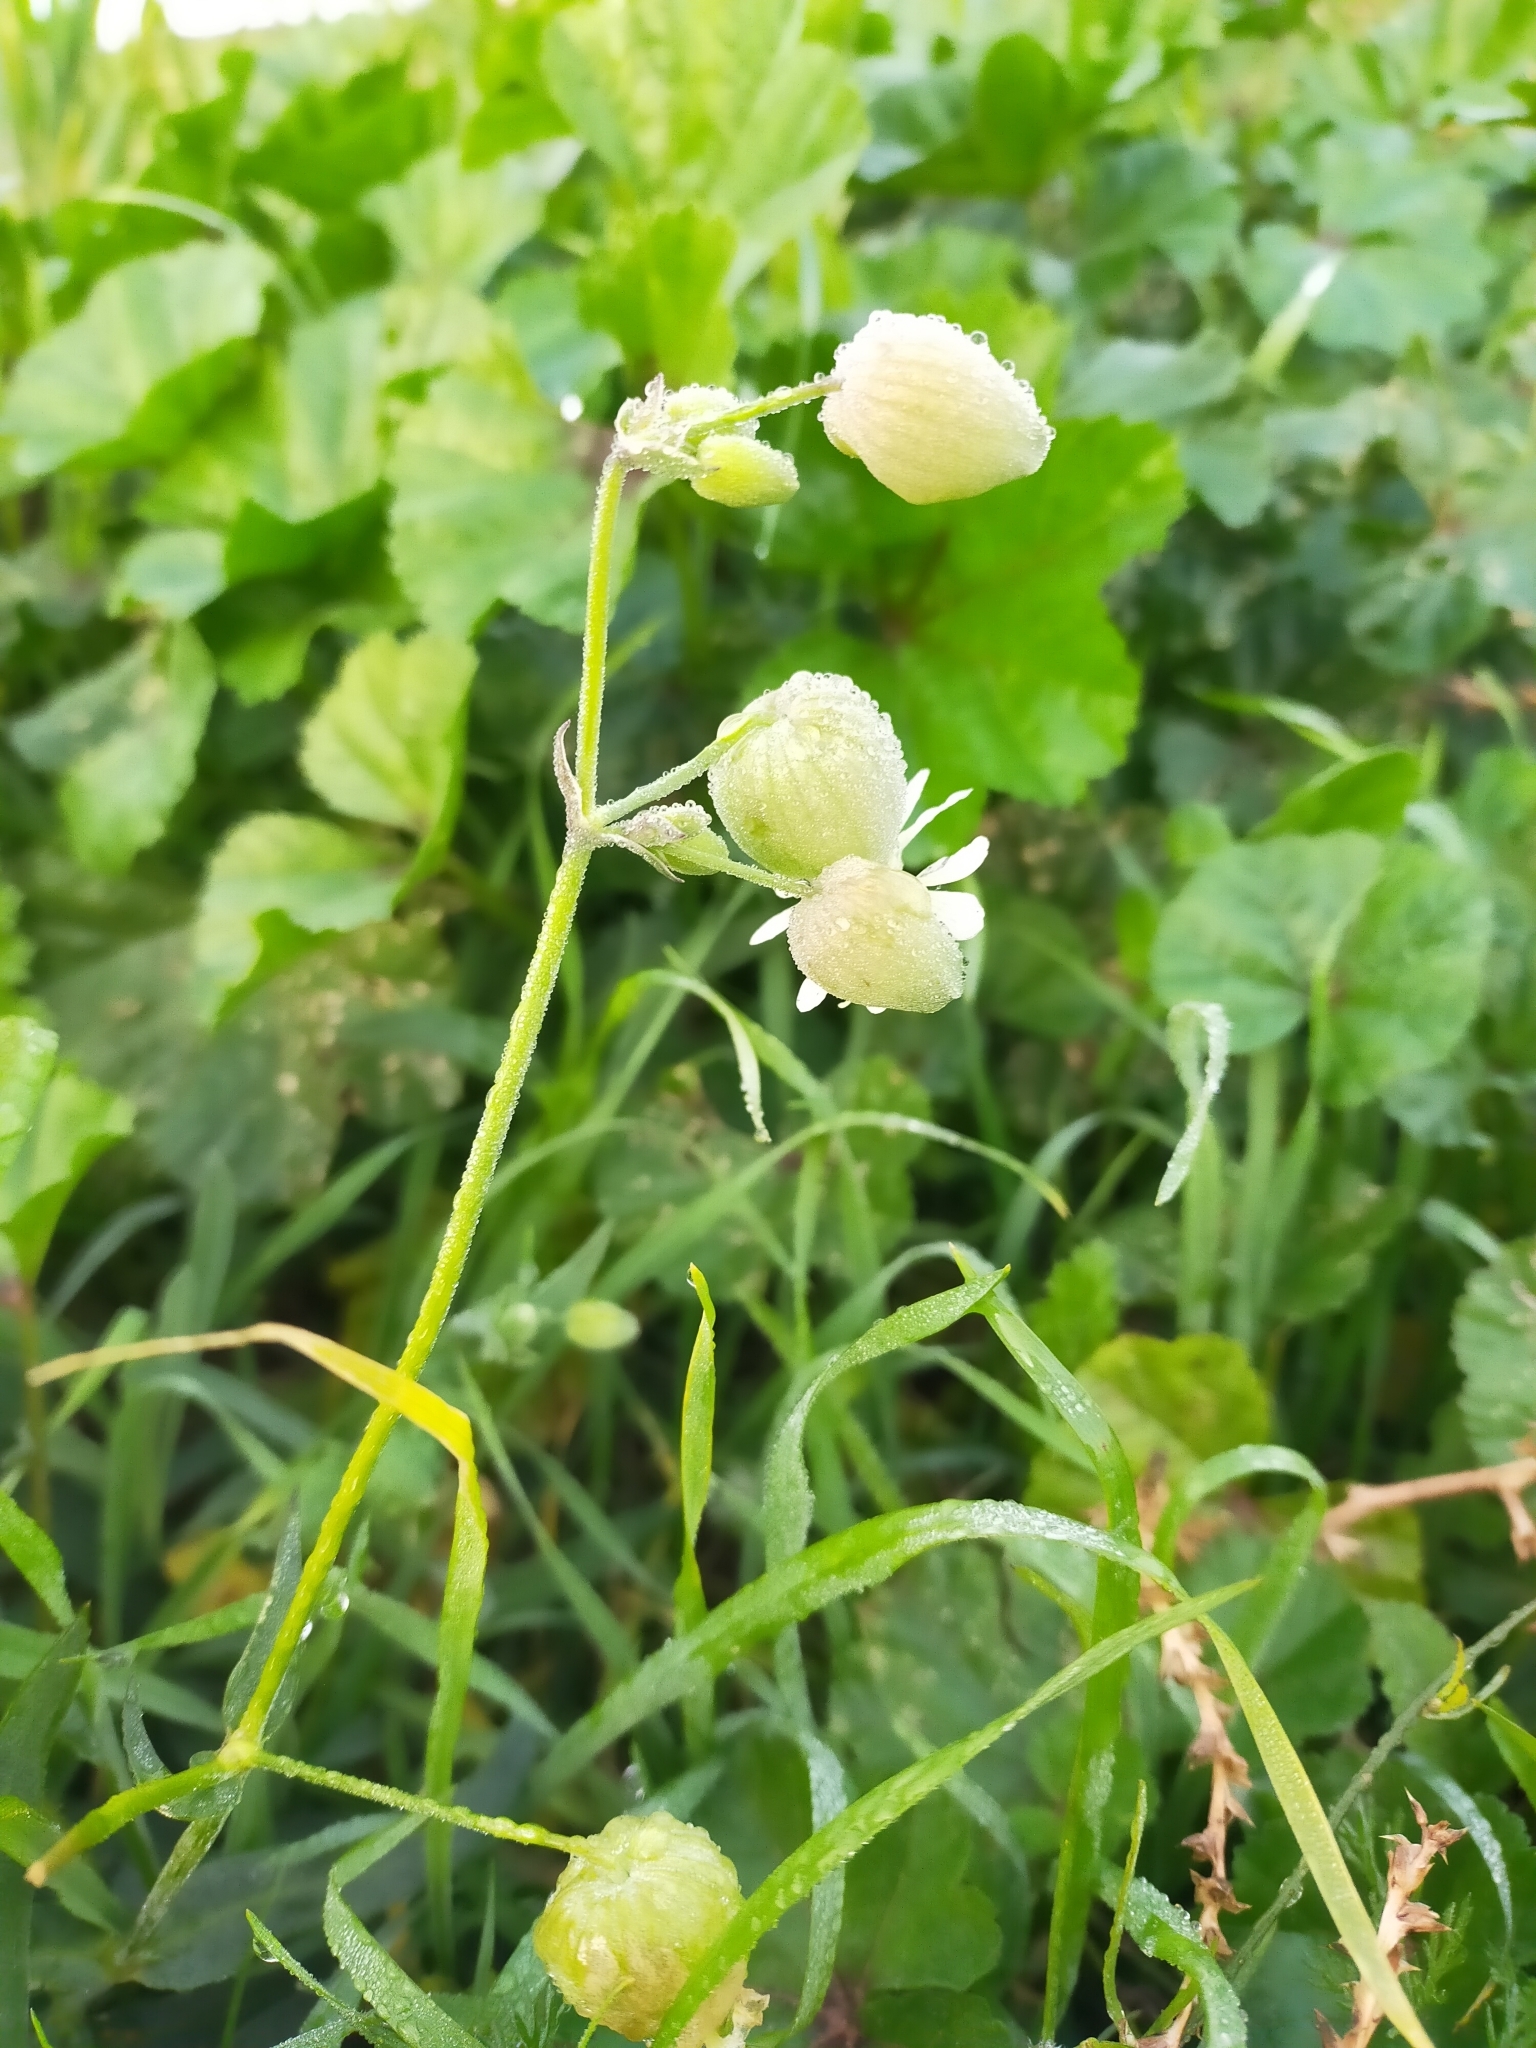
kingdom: Plantae
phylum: Tracheophyta
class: Magnoliopsida
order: Caryophyllales
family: Caryophyllaceae
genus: Silene
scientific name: Silene vulgaris
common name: Bladder campion
